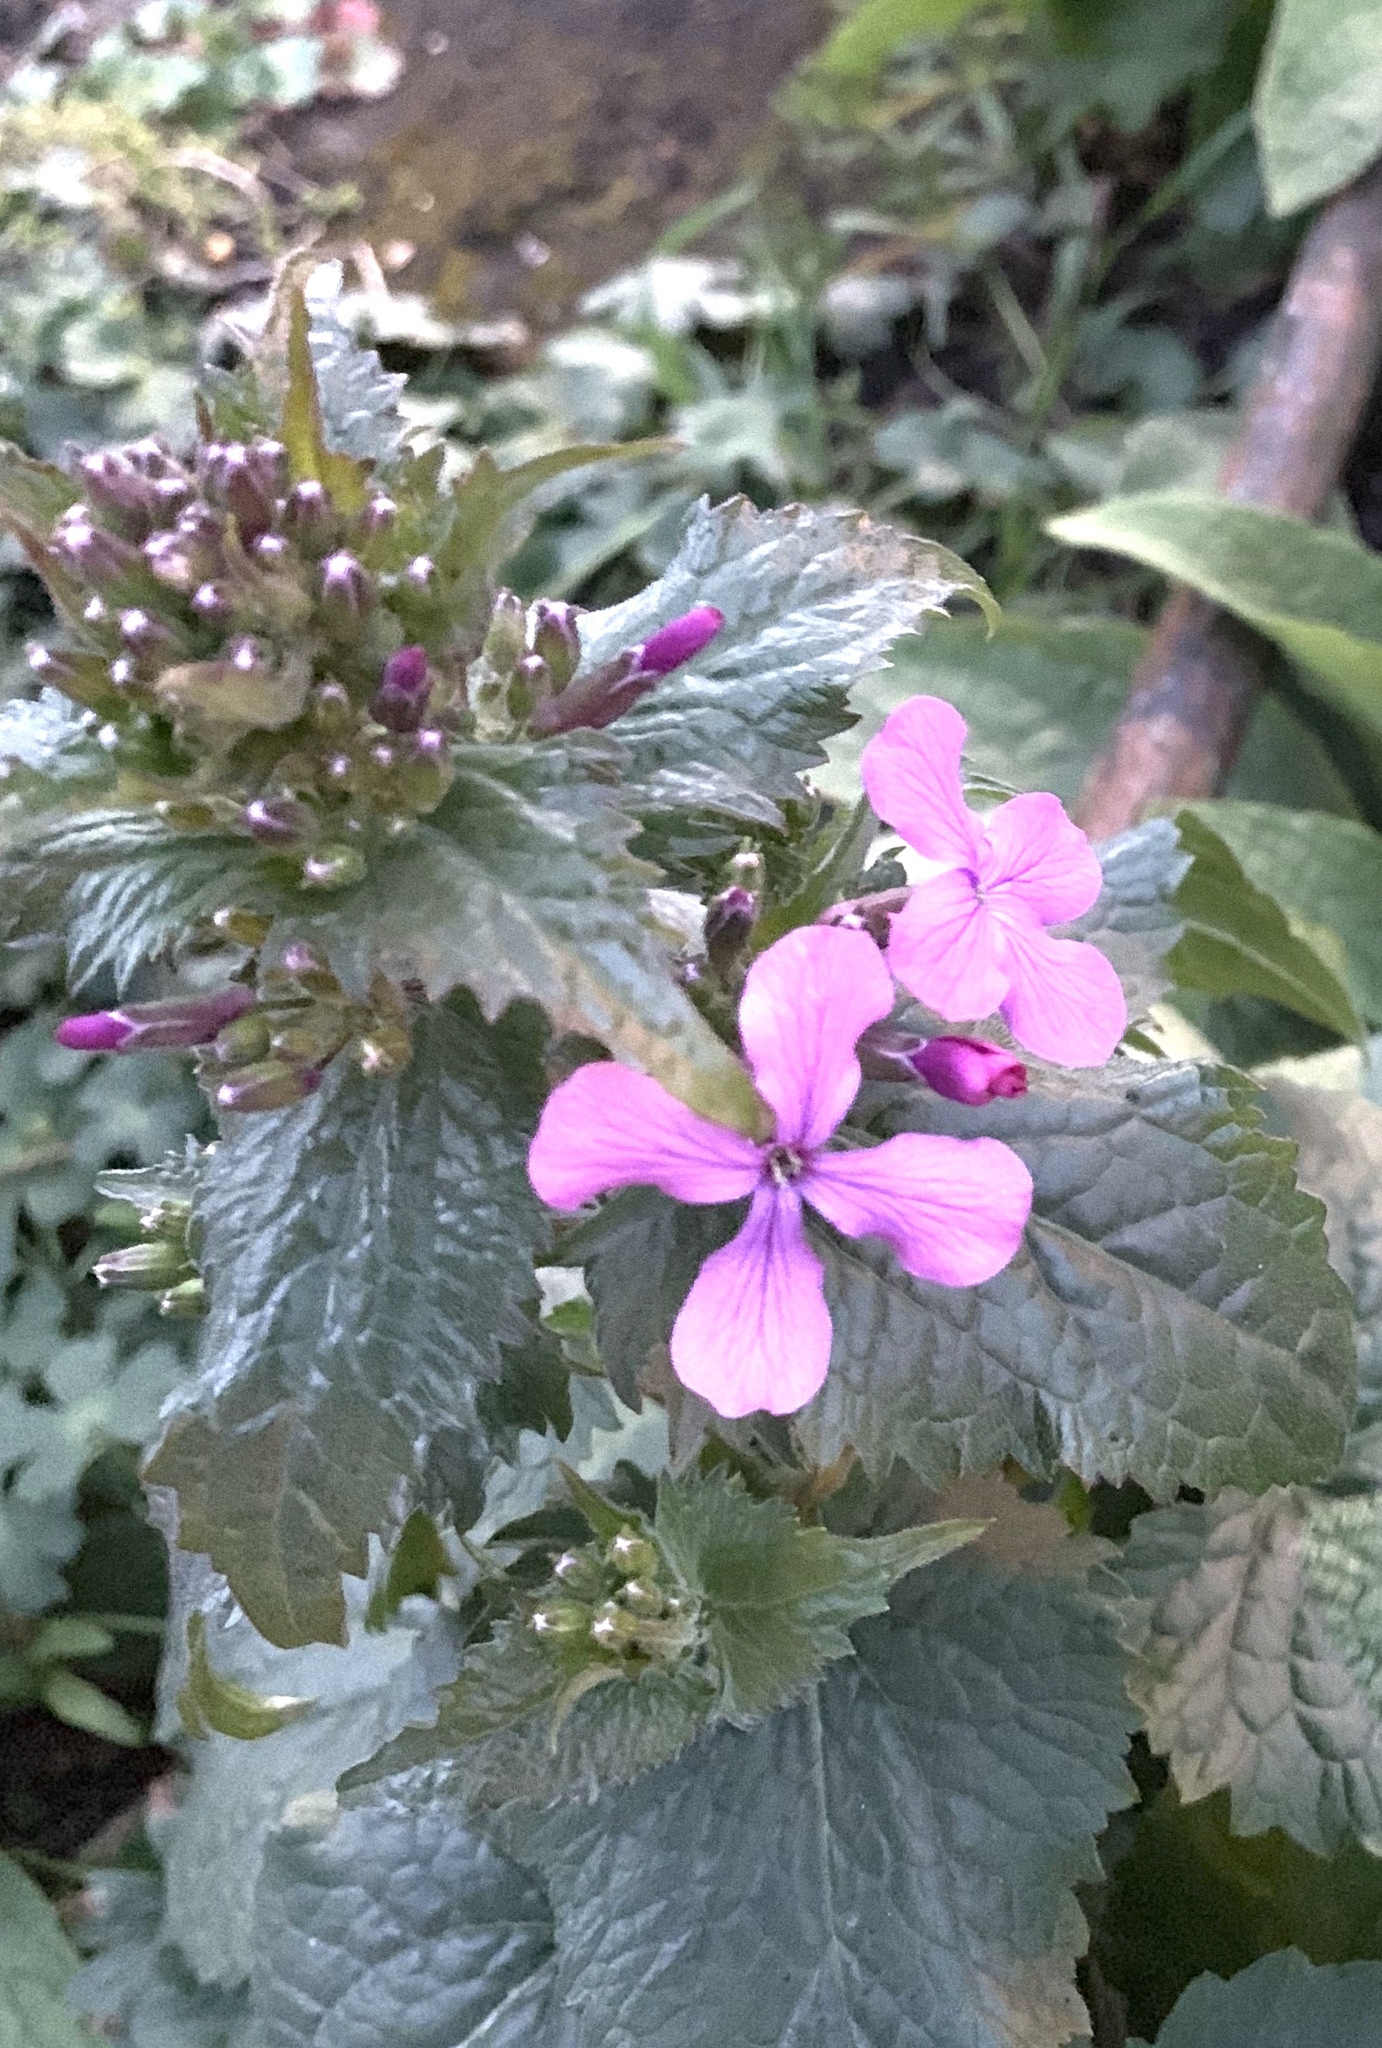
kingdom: Plantae
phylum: Tracheophyta
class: Magnoliopsida
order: Brassicales
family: Brassicaceae
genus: Lunaria
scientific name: Lunaria annua
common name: Honesty
